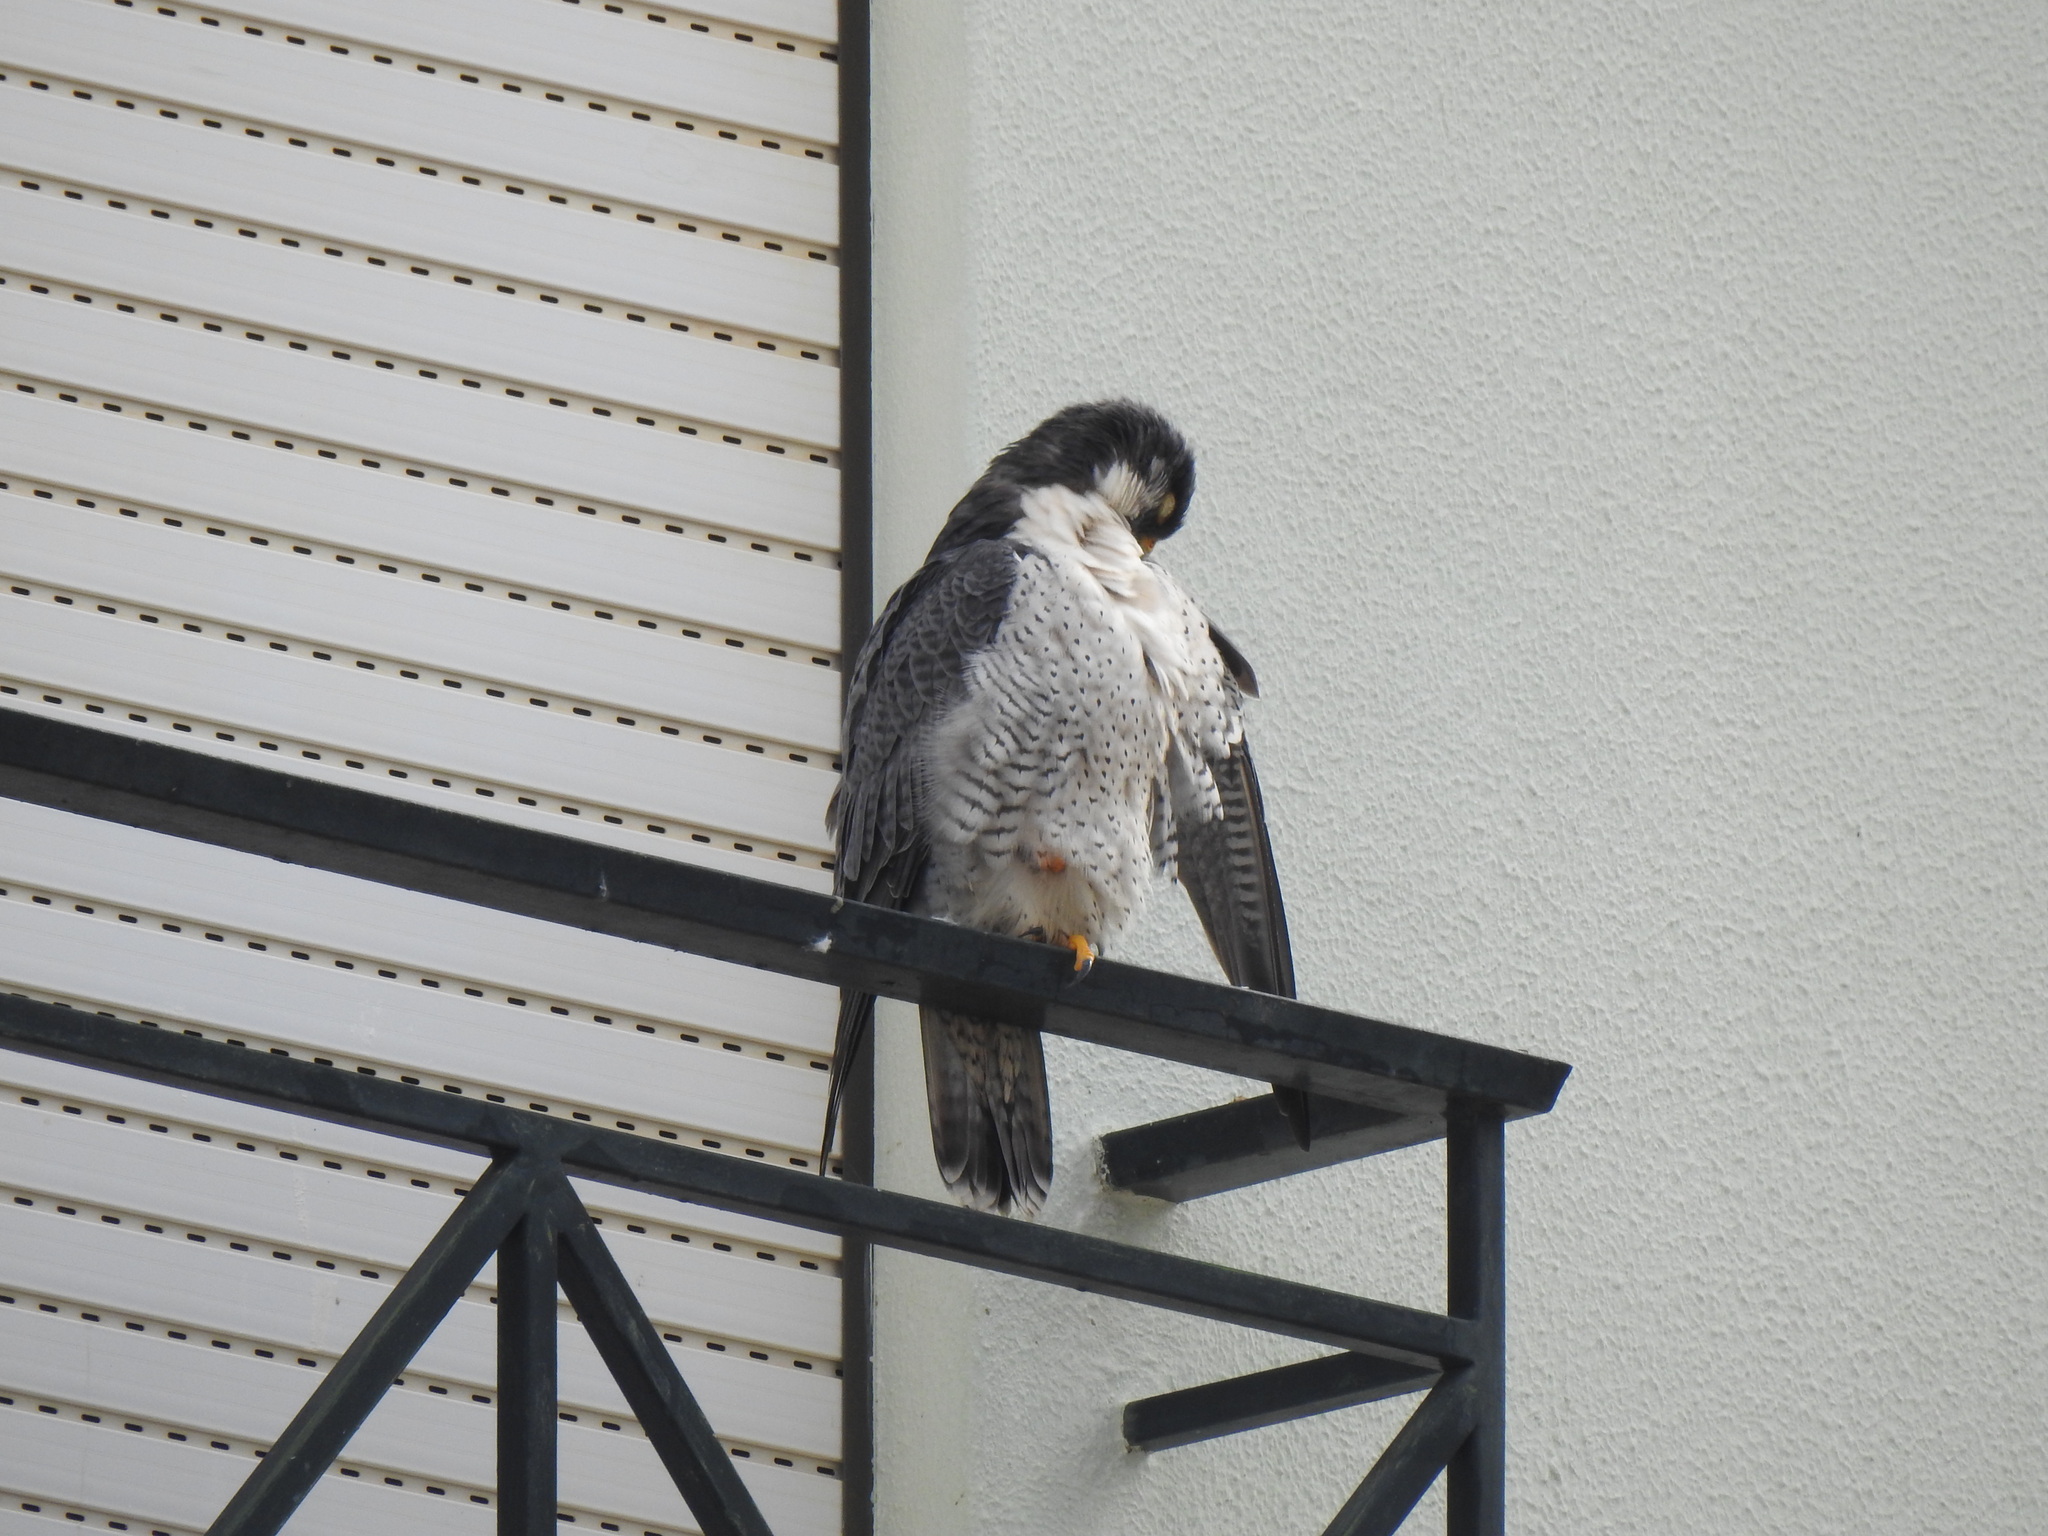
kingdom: Animalia
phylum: Chordata
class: Aves
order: Falconiformes
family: Falconidae
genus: Falco
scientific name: Falco peregrinus
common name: Peregrine falcon
